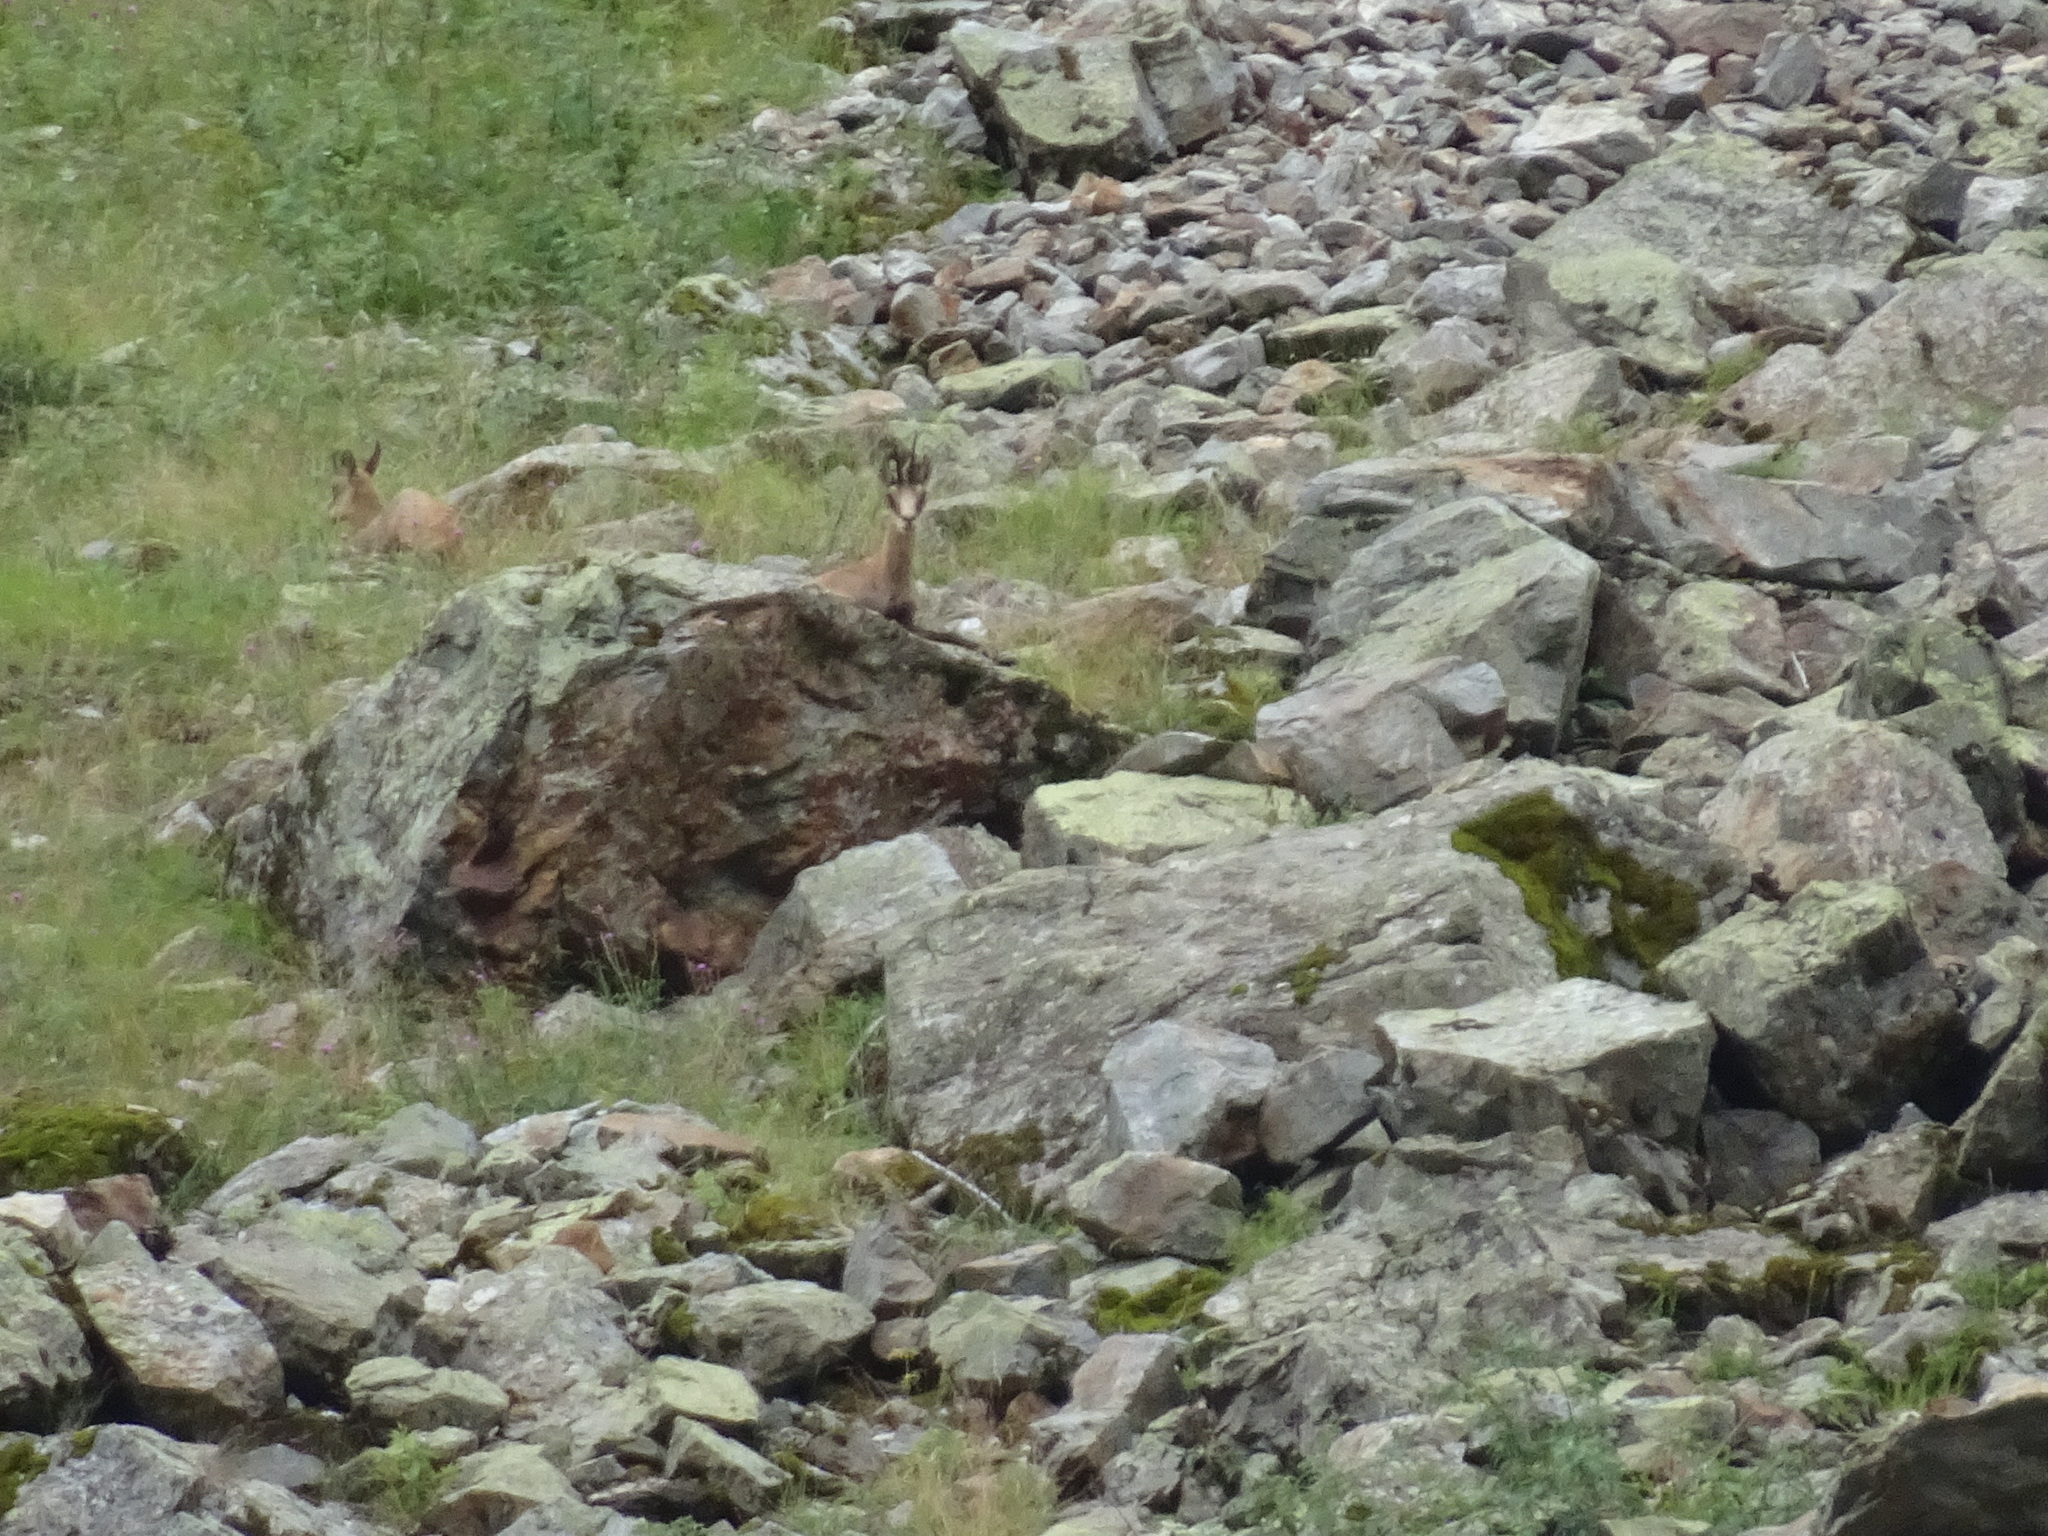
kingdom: Animalia
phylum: Chordata
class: Mammalia
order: Artiodactyla
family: Bovidae
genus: Rupicapra
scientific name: Rupicapra rupicapra
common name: Chamois
